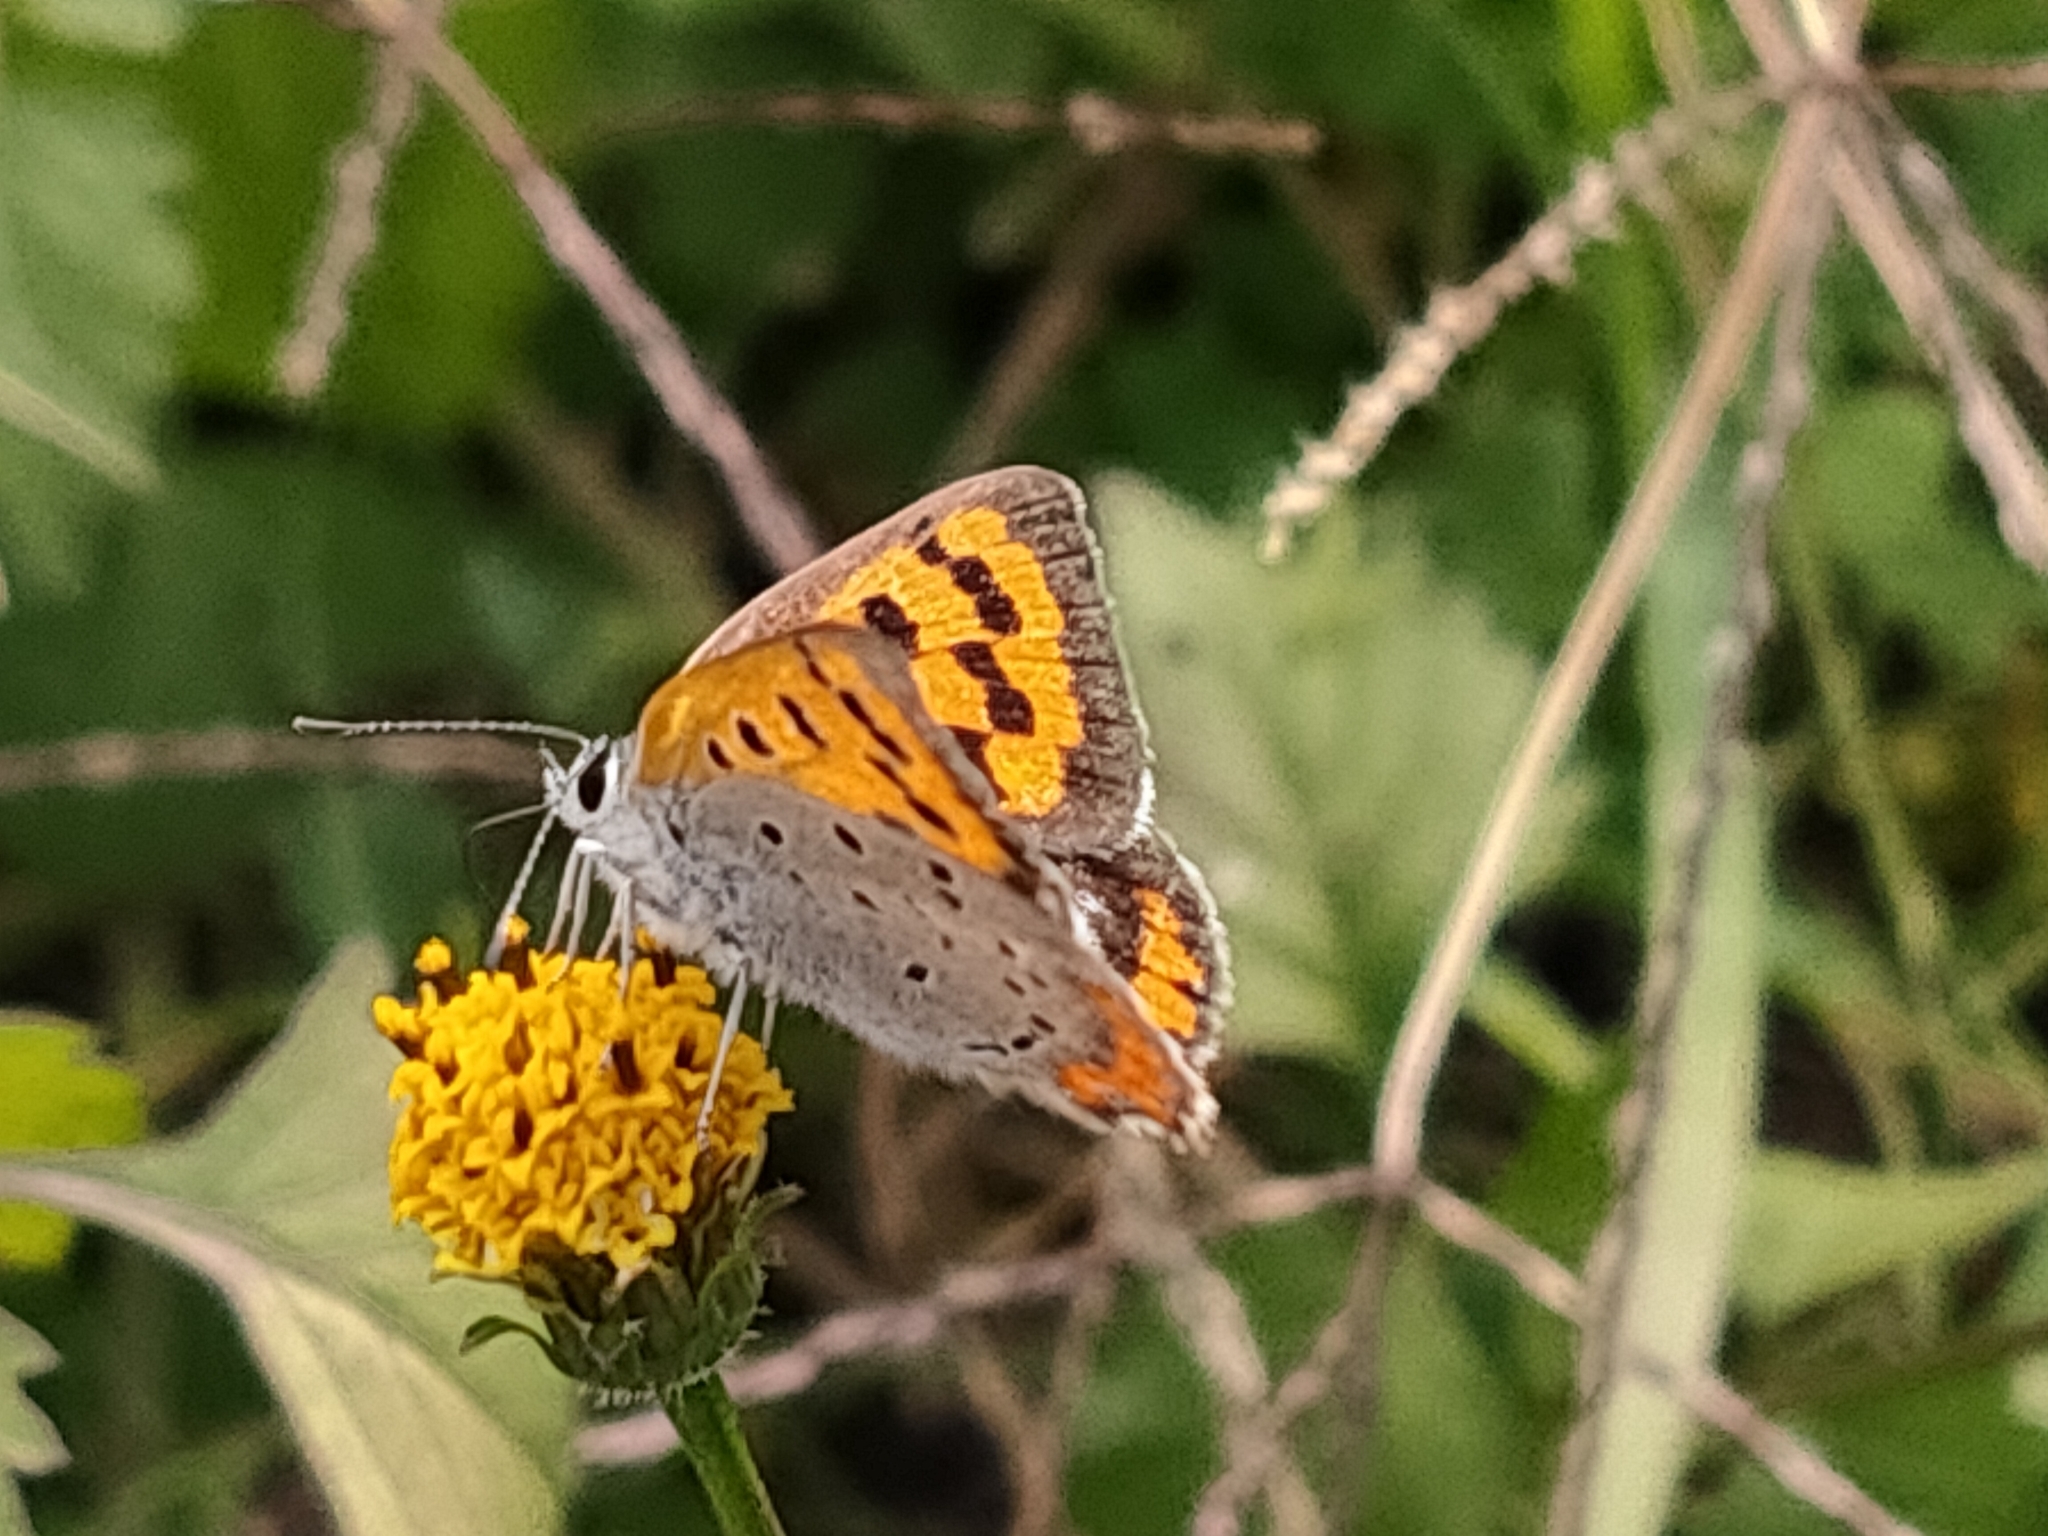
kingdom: Animalia
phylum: Arthropoda
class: Insecta
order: Lepidoptera
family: Lycaenidae
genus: Lycaena
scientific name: Lycaena phlaeas
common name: Small copper
